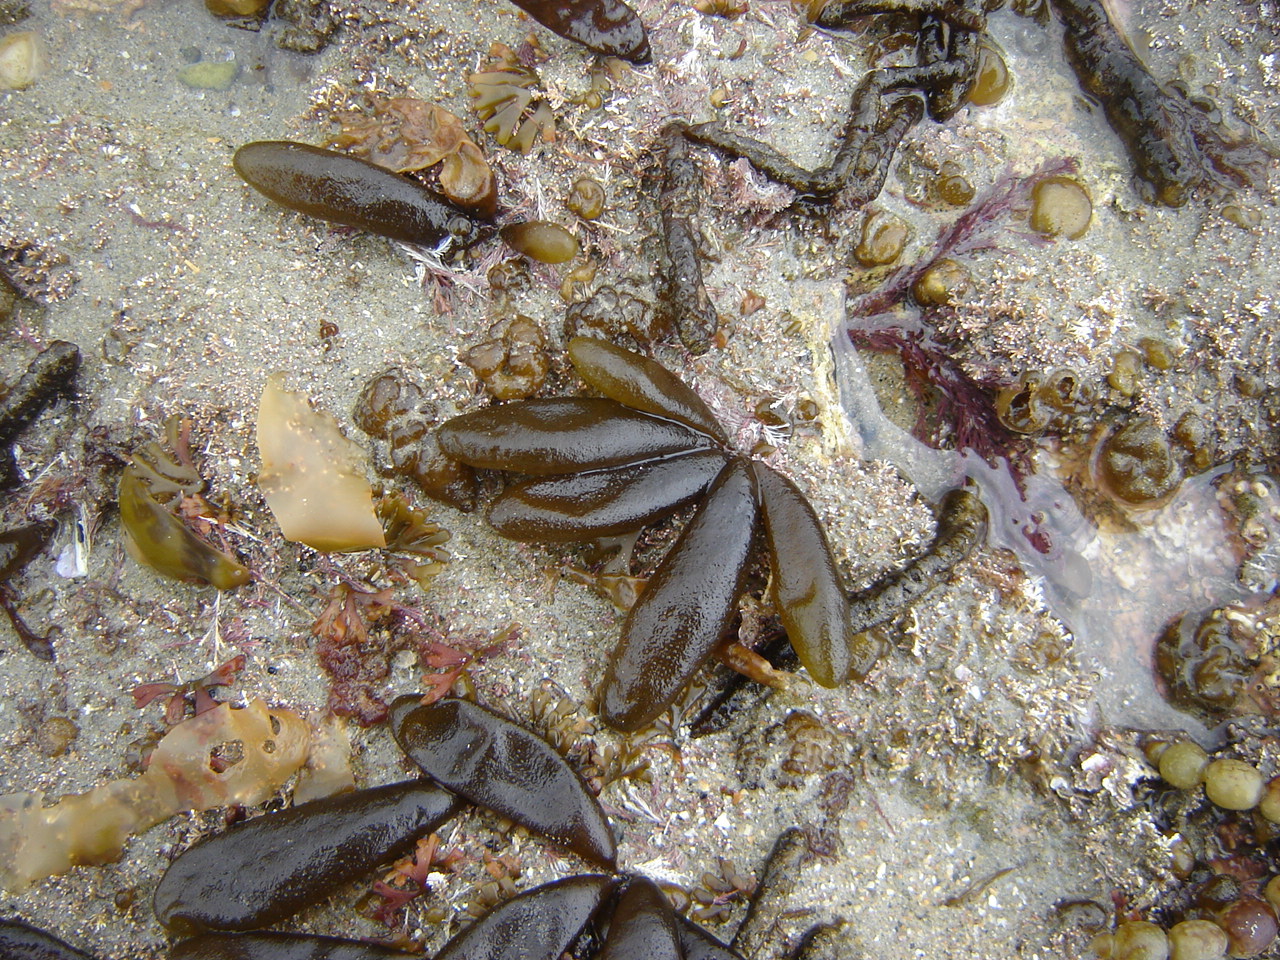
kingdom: Chromista
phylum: Ochrophyta
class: Phaeophyceae
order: Ectocarpales
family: Adenocystaceae
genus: Adenocystis
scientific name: Adenocystis utricularis
